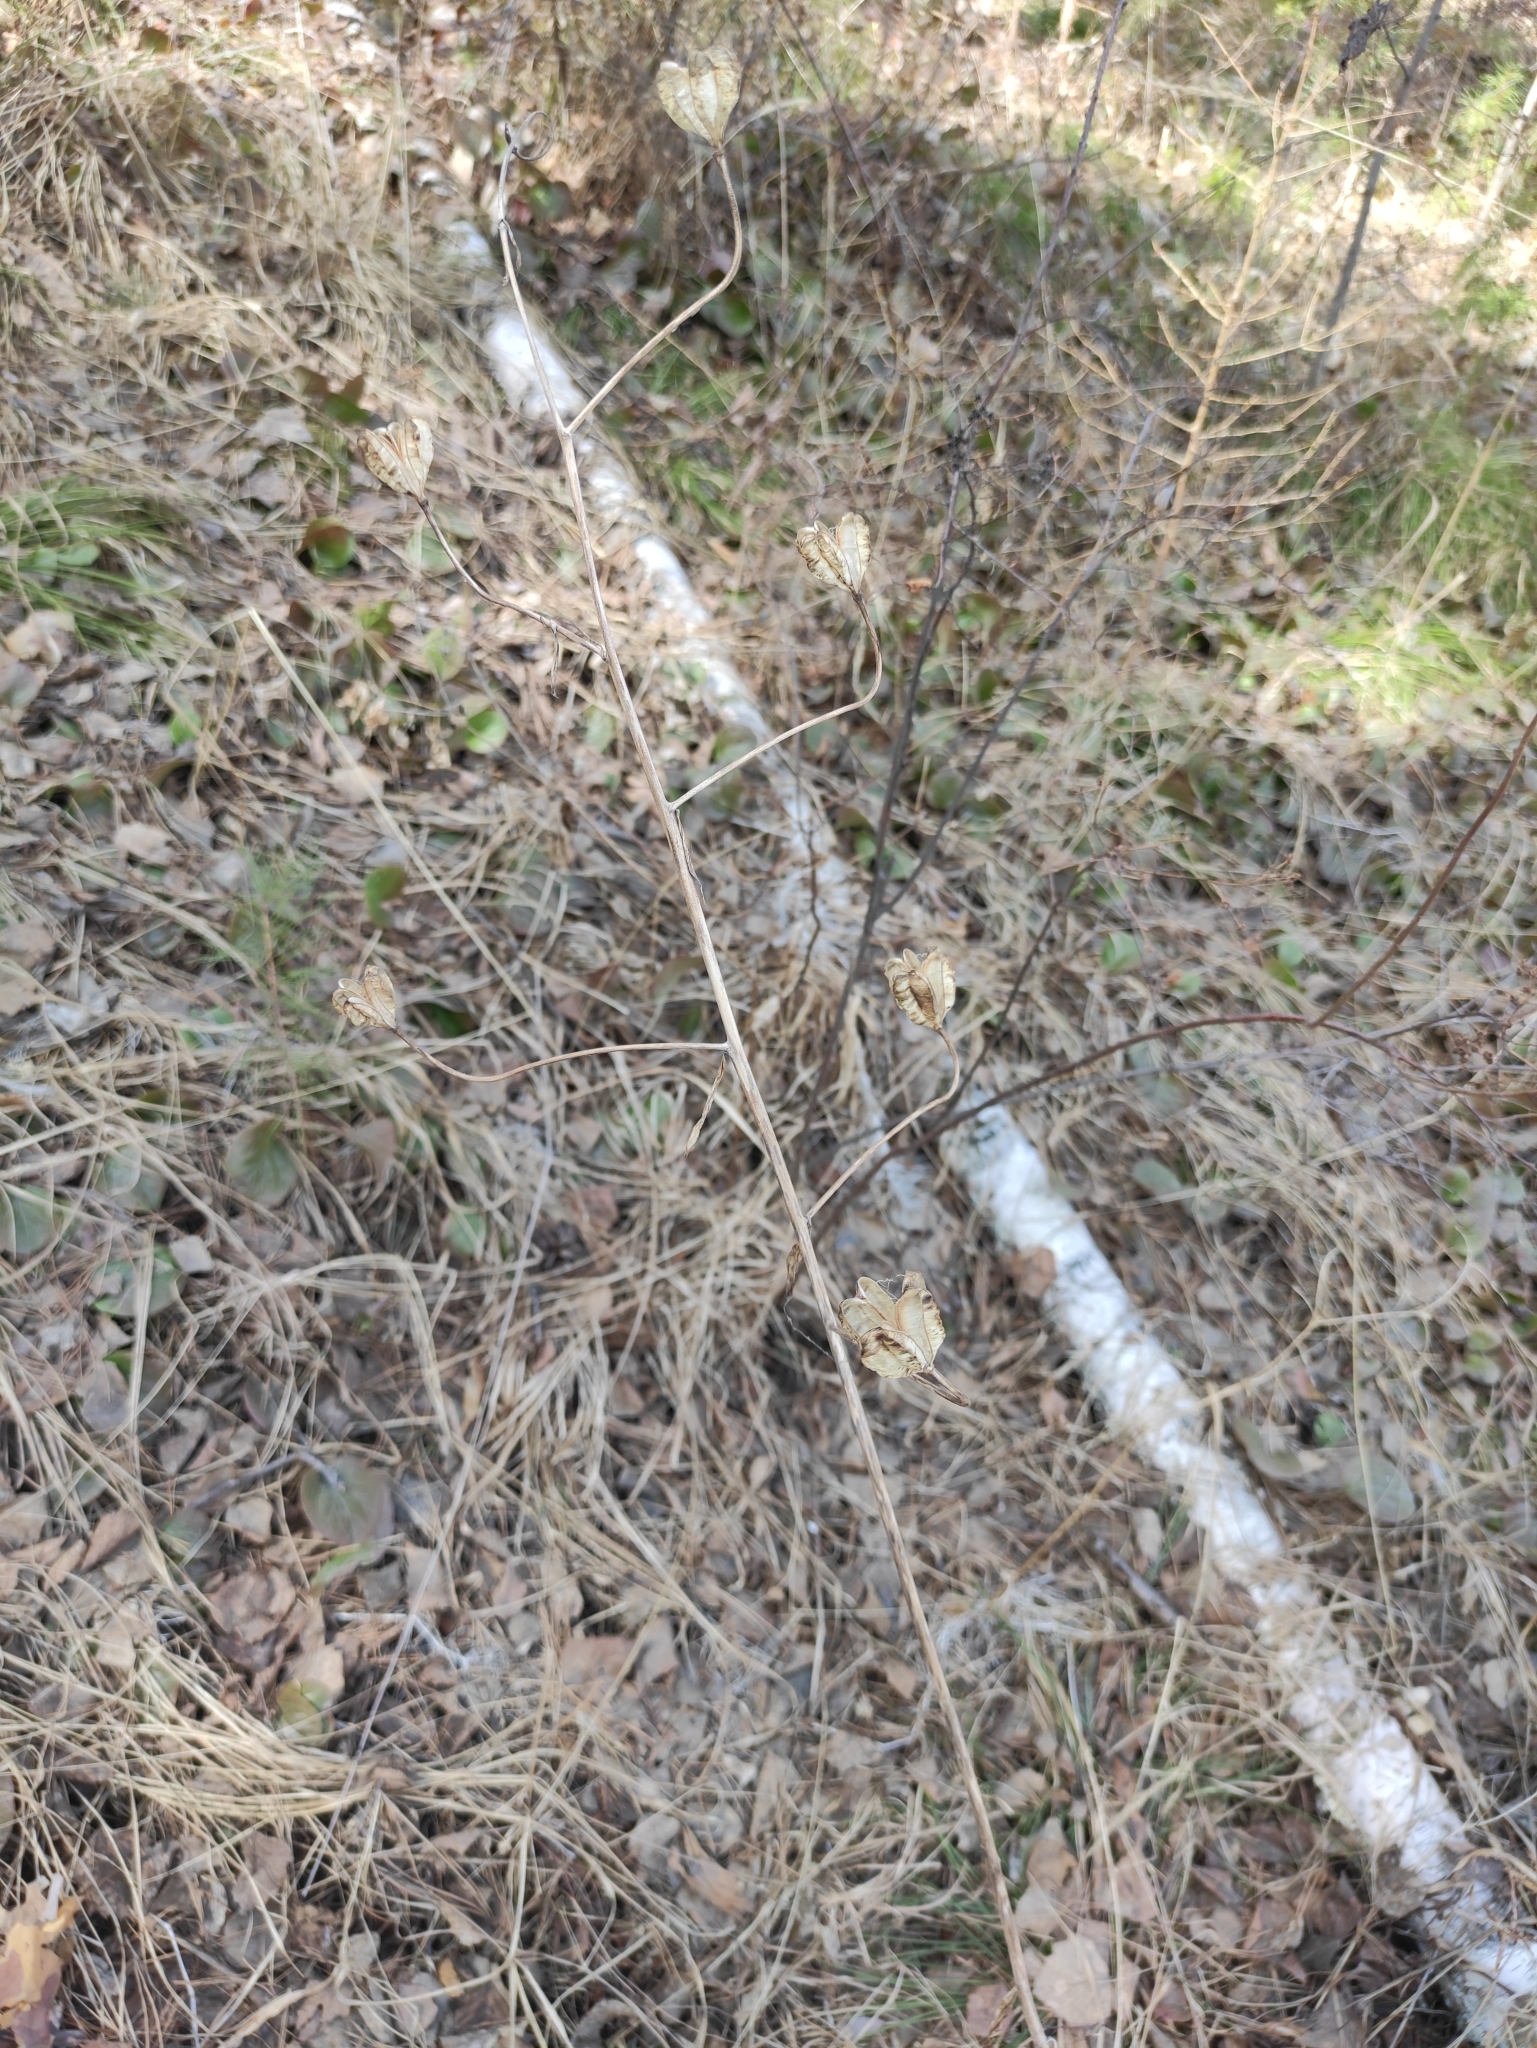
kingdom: Plantae
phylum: Tracheophyta
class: Liliopsida
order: Liliales
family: Liliaceae
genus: Lilium
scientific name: Lilium martagon
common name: Martagon lily
